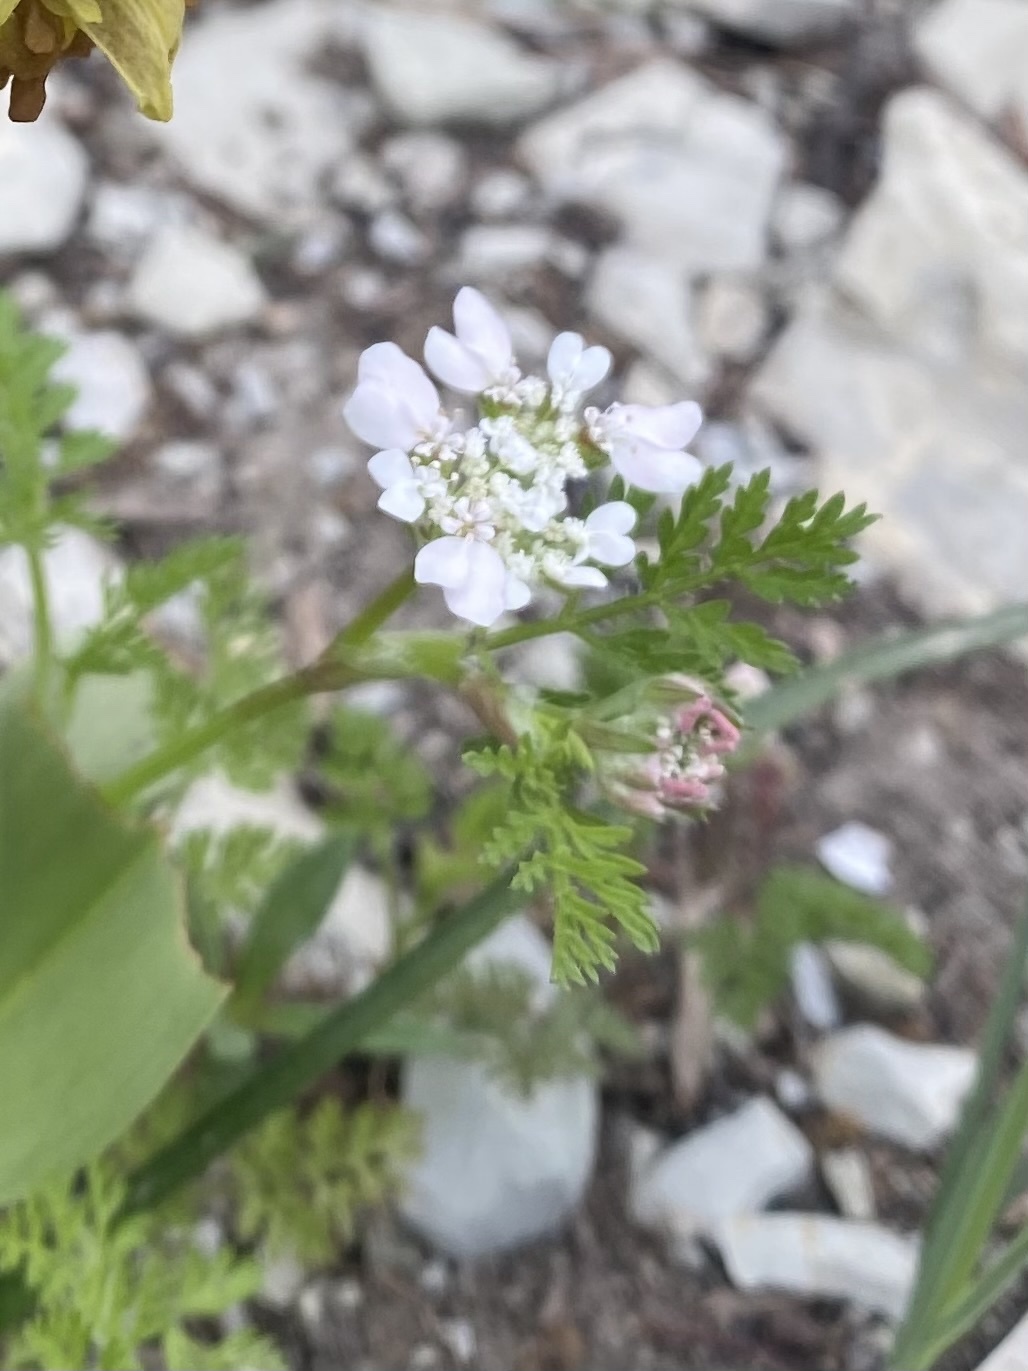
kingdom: Plantae
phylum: Tracheophyta
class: Magnoliopsida
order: Apiales
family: Apiaceae
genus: Orlaya
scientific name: Orlaya daucoides
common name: Flat-fruit orlaya
